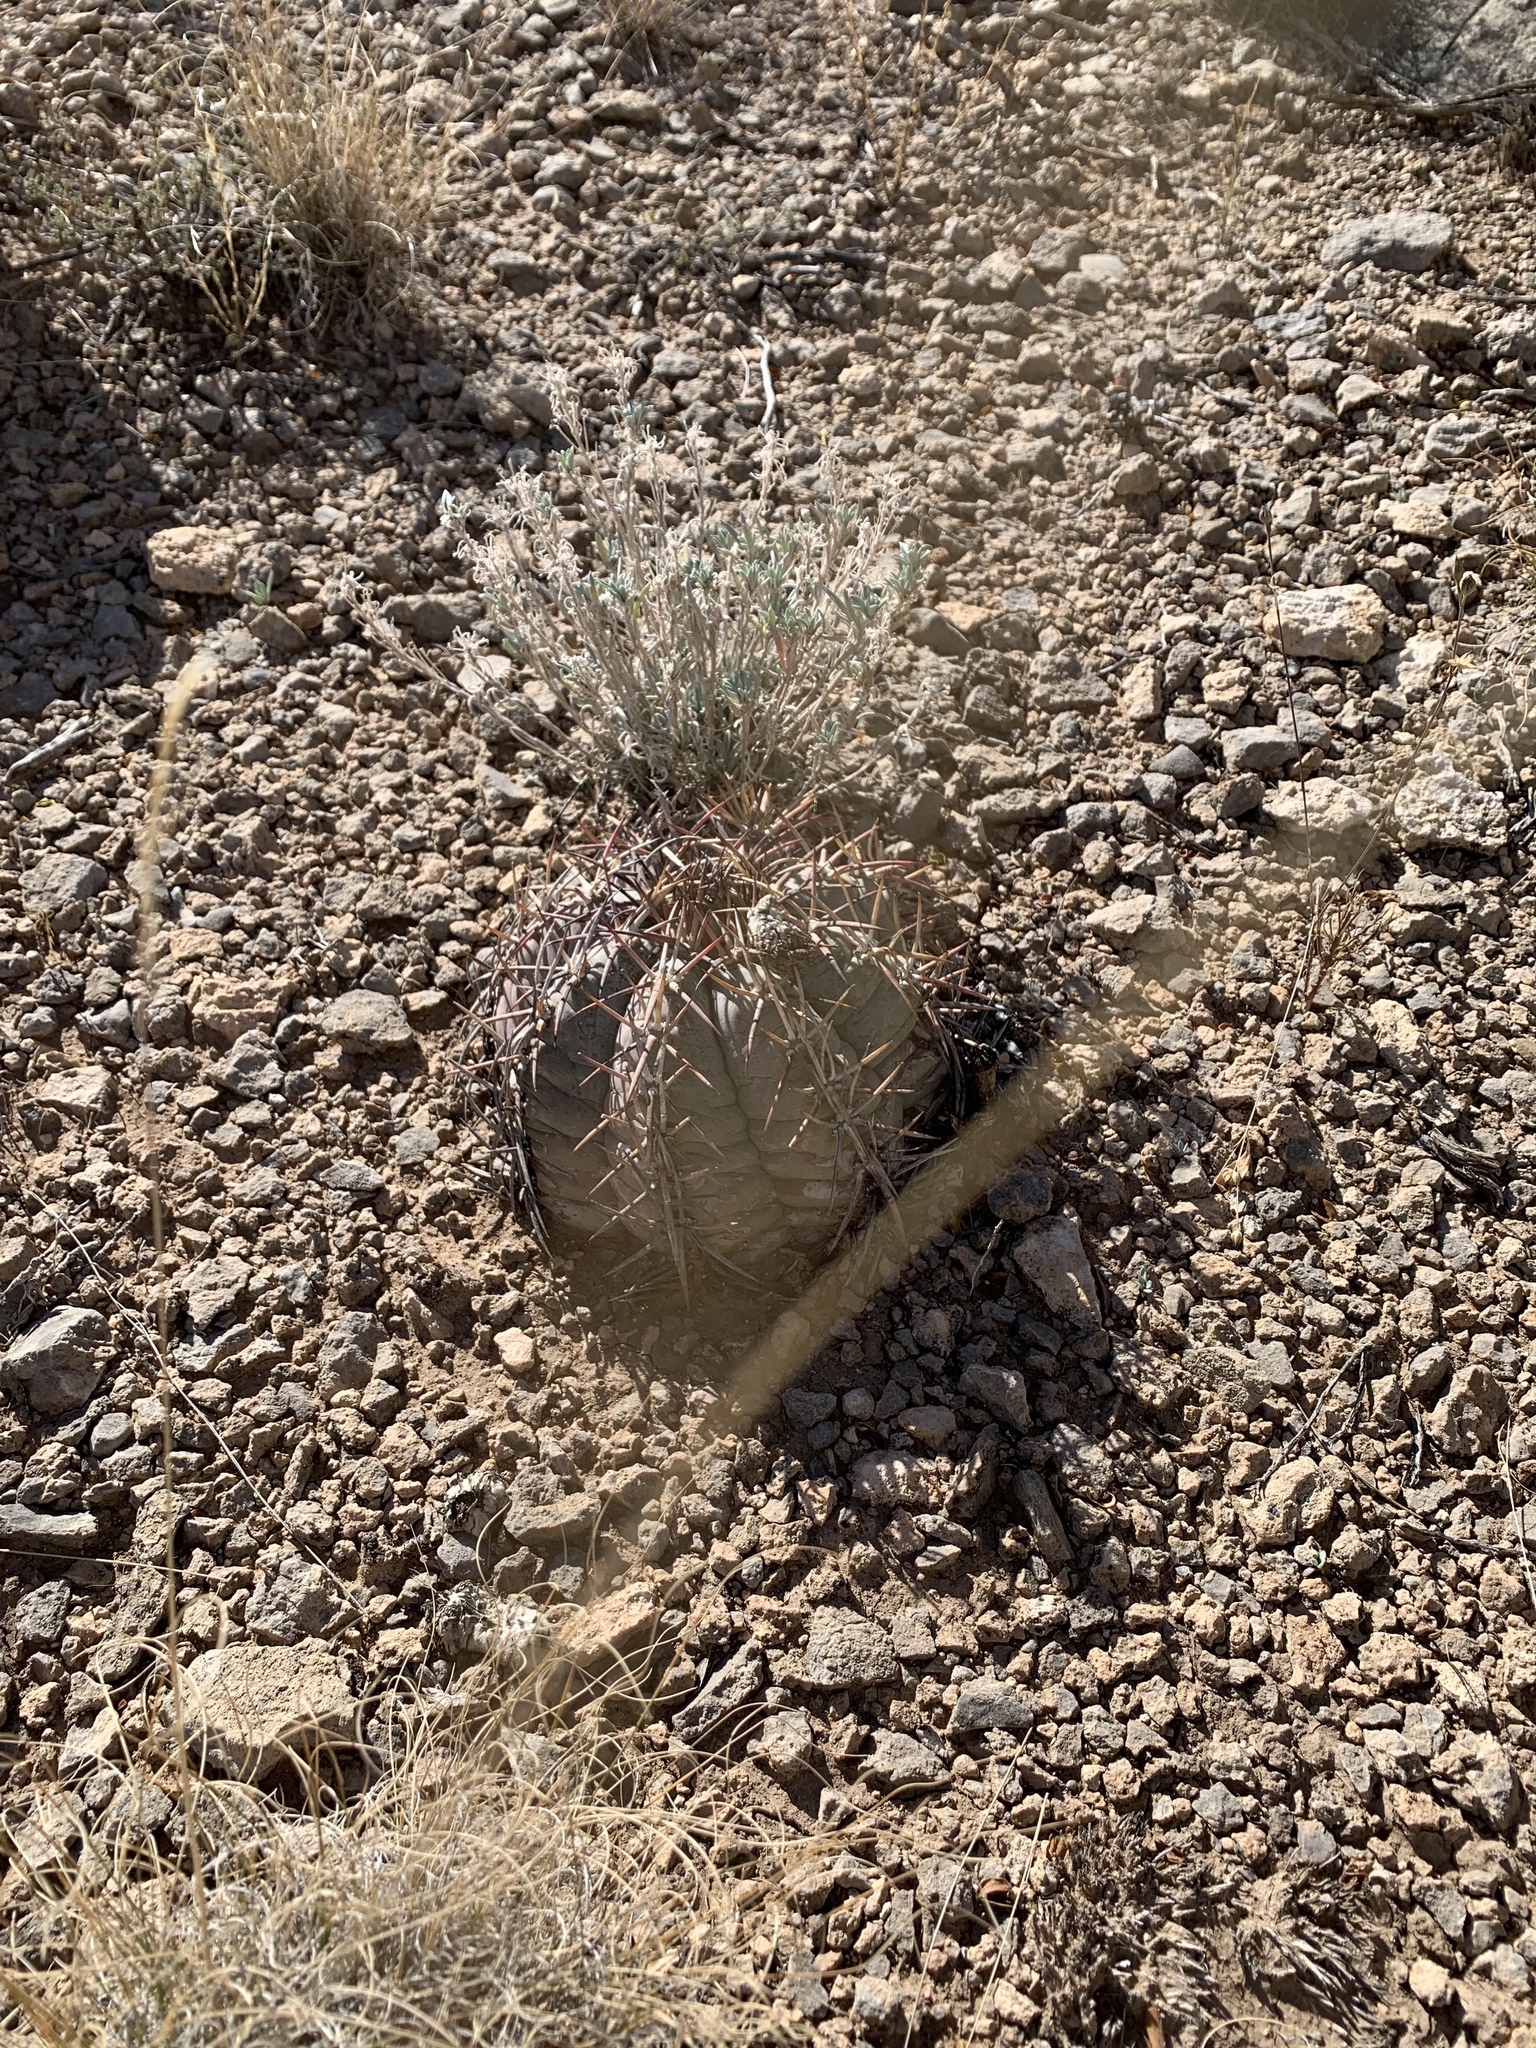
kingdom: Plantae
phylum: Tracheophyta
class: Magnoliopsida
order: Caryophyllales
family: Cactaceae
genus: Echinocactus
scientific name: Echinocactus horizonthalonius
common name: Devilshead
